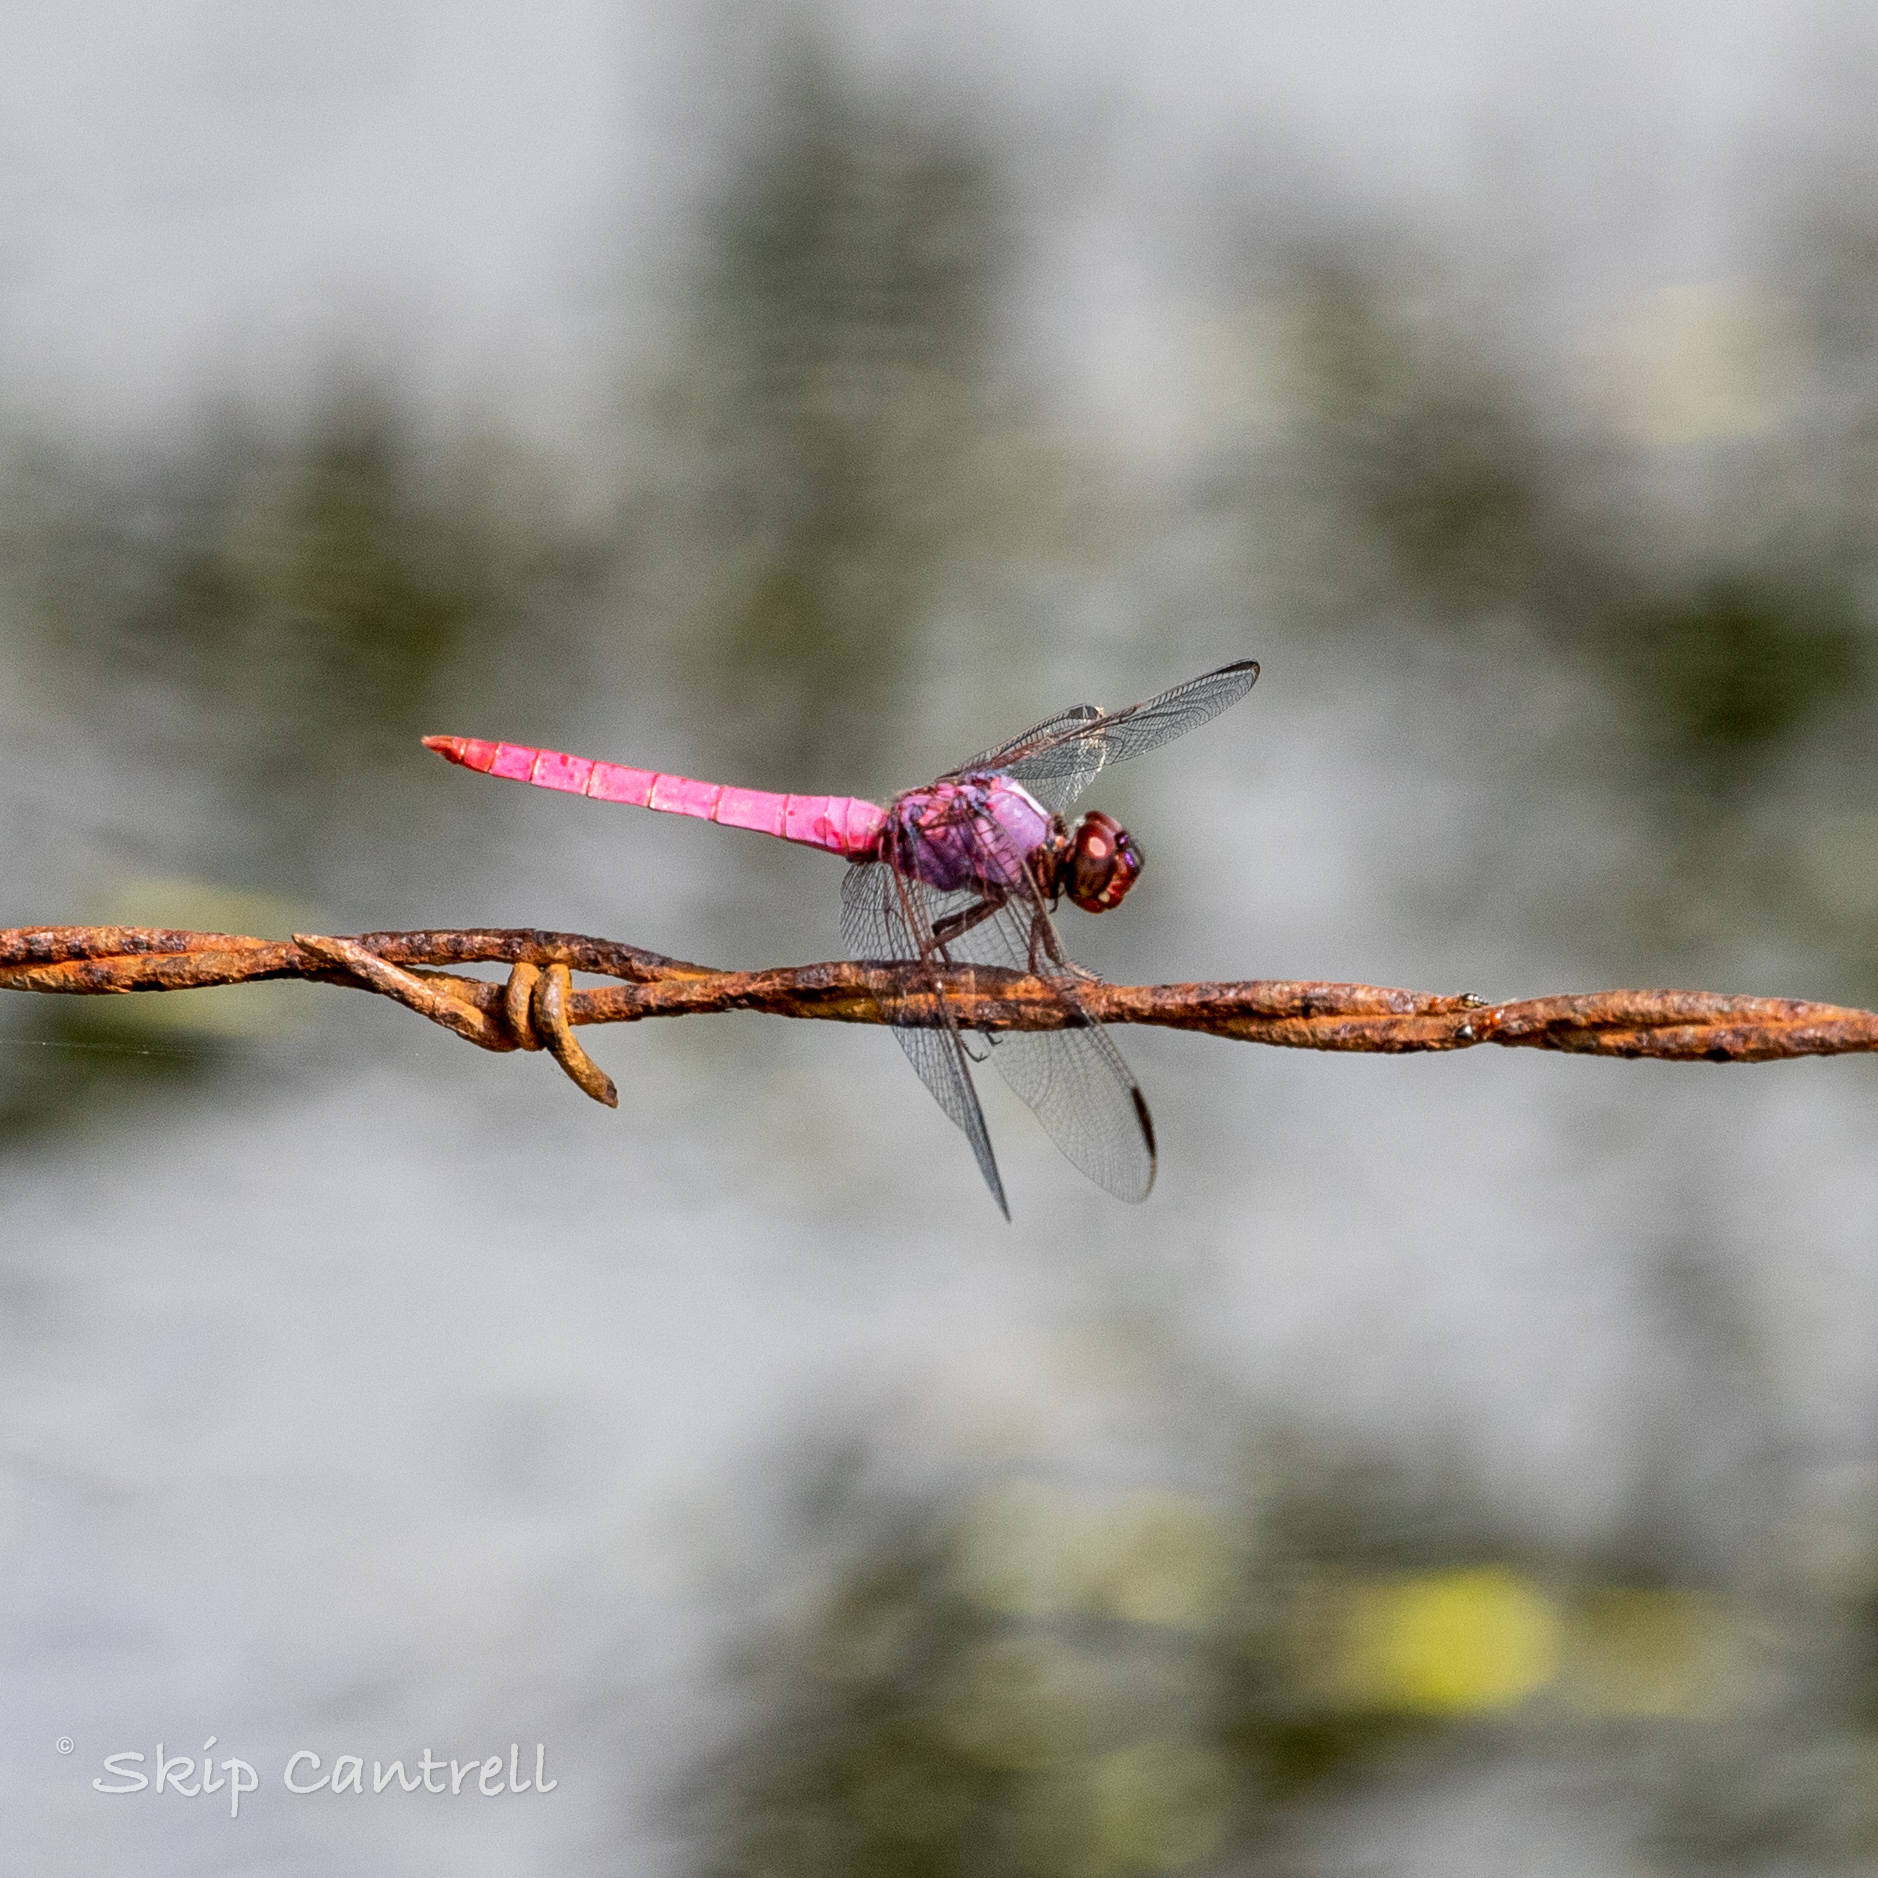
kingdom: Animalia
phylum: Arthropoda
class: Insecta
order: Odonata
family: Libellulidae
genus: Orthemis
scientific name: Orthemis ferruginea
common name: Roseate skimmer
